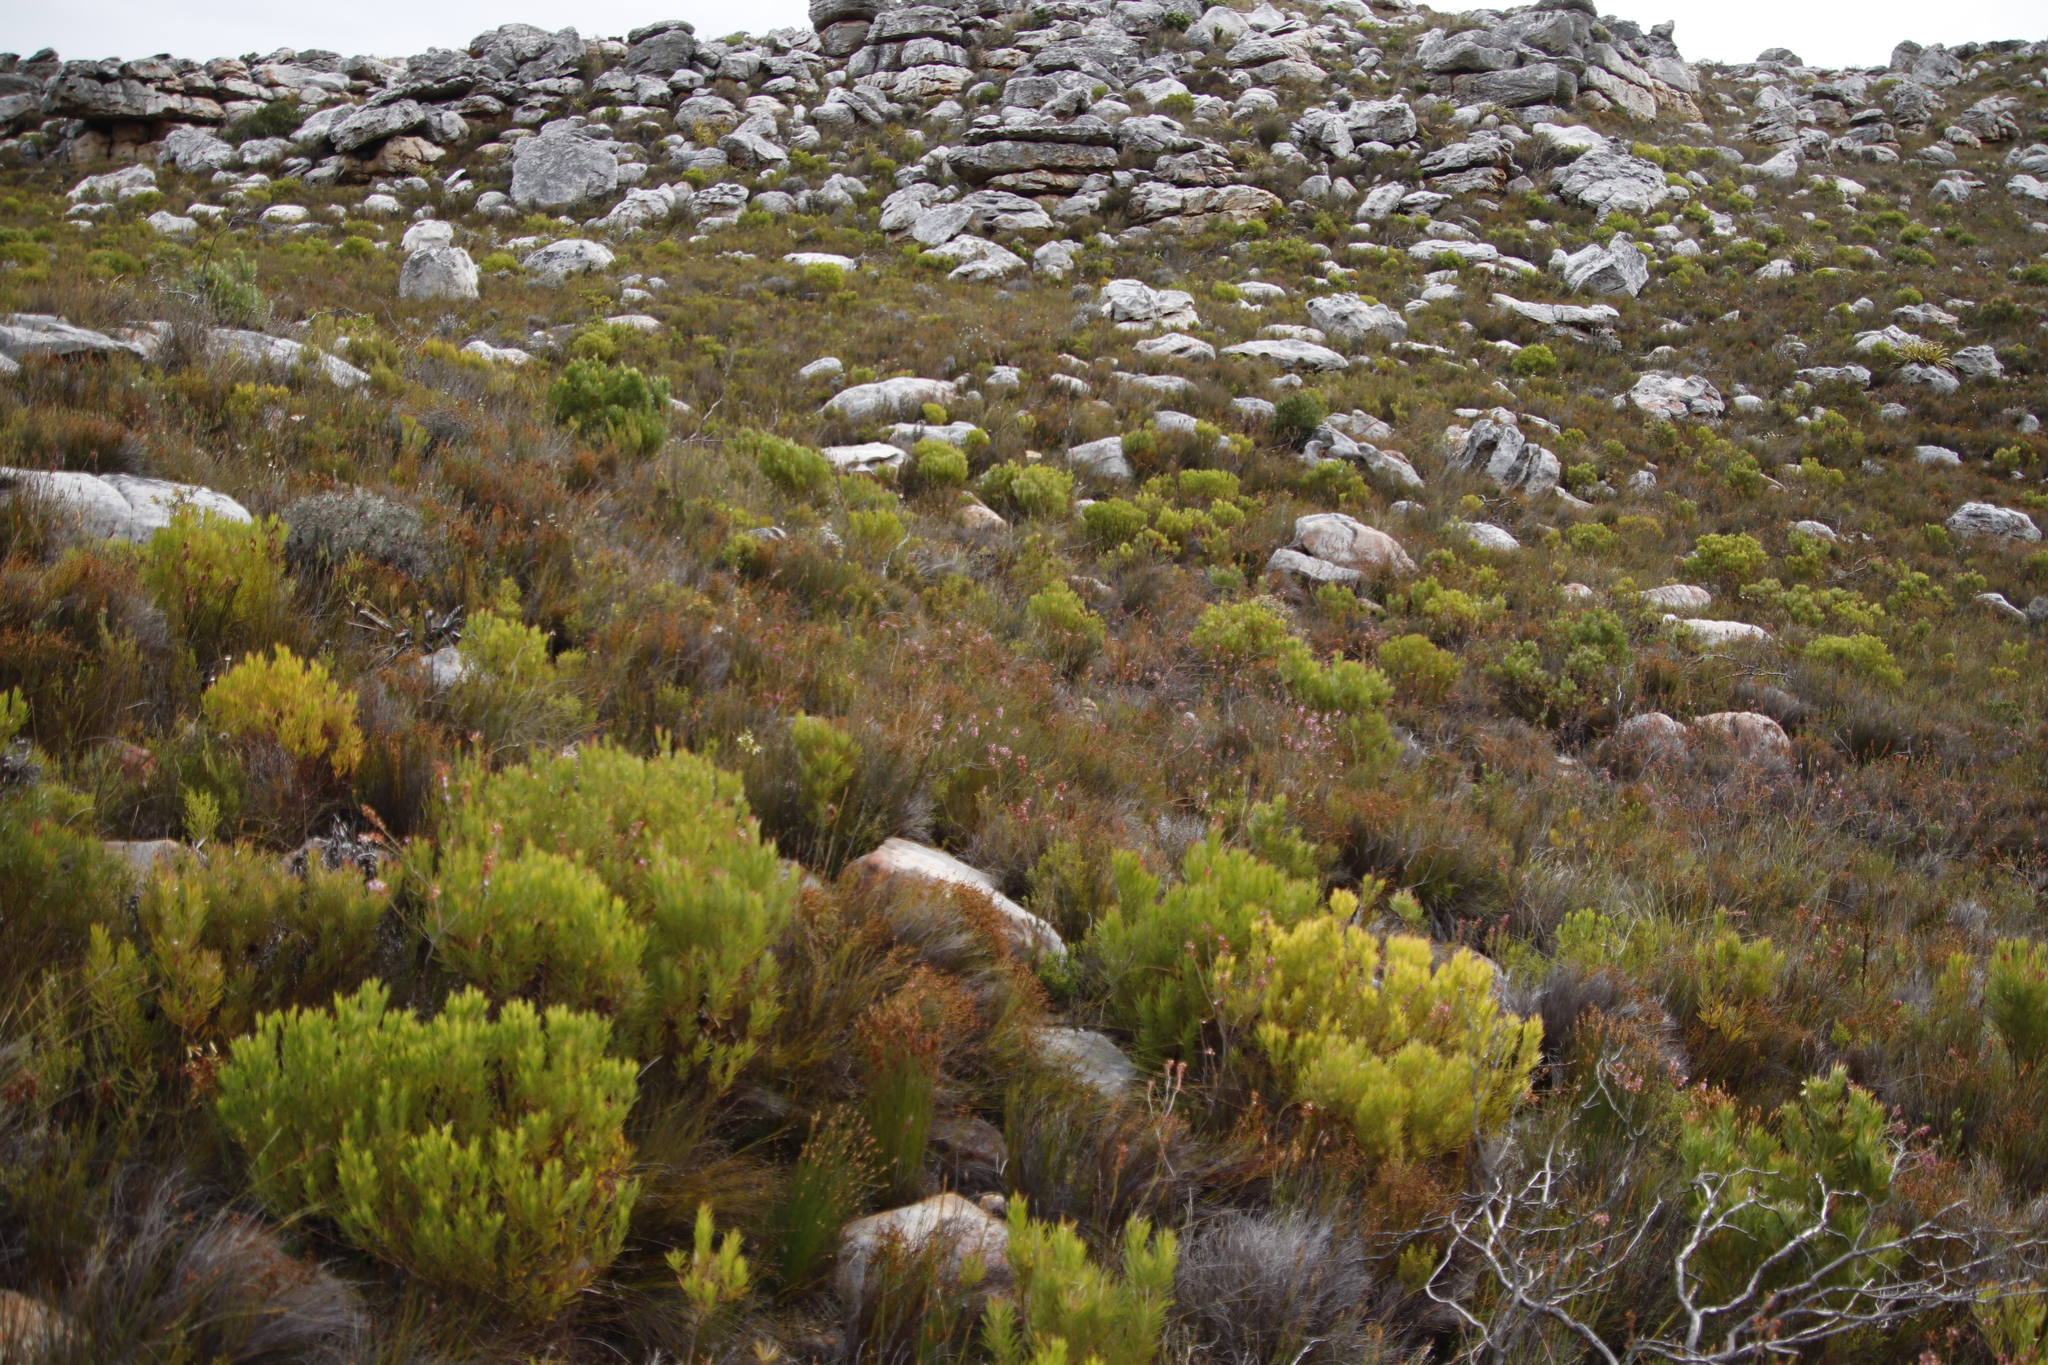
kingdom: Plantae
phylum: Tracheophyta
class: Magnoliopsida
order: Proteales
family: Proteaceae
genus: Leucadendron
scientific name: Leucadendron xanthoconus
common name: Sickle-leaf conebush
